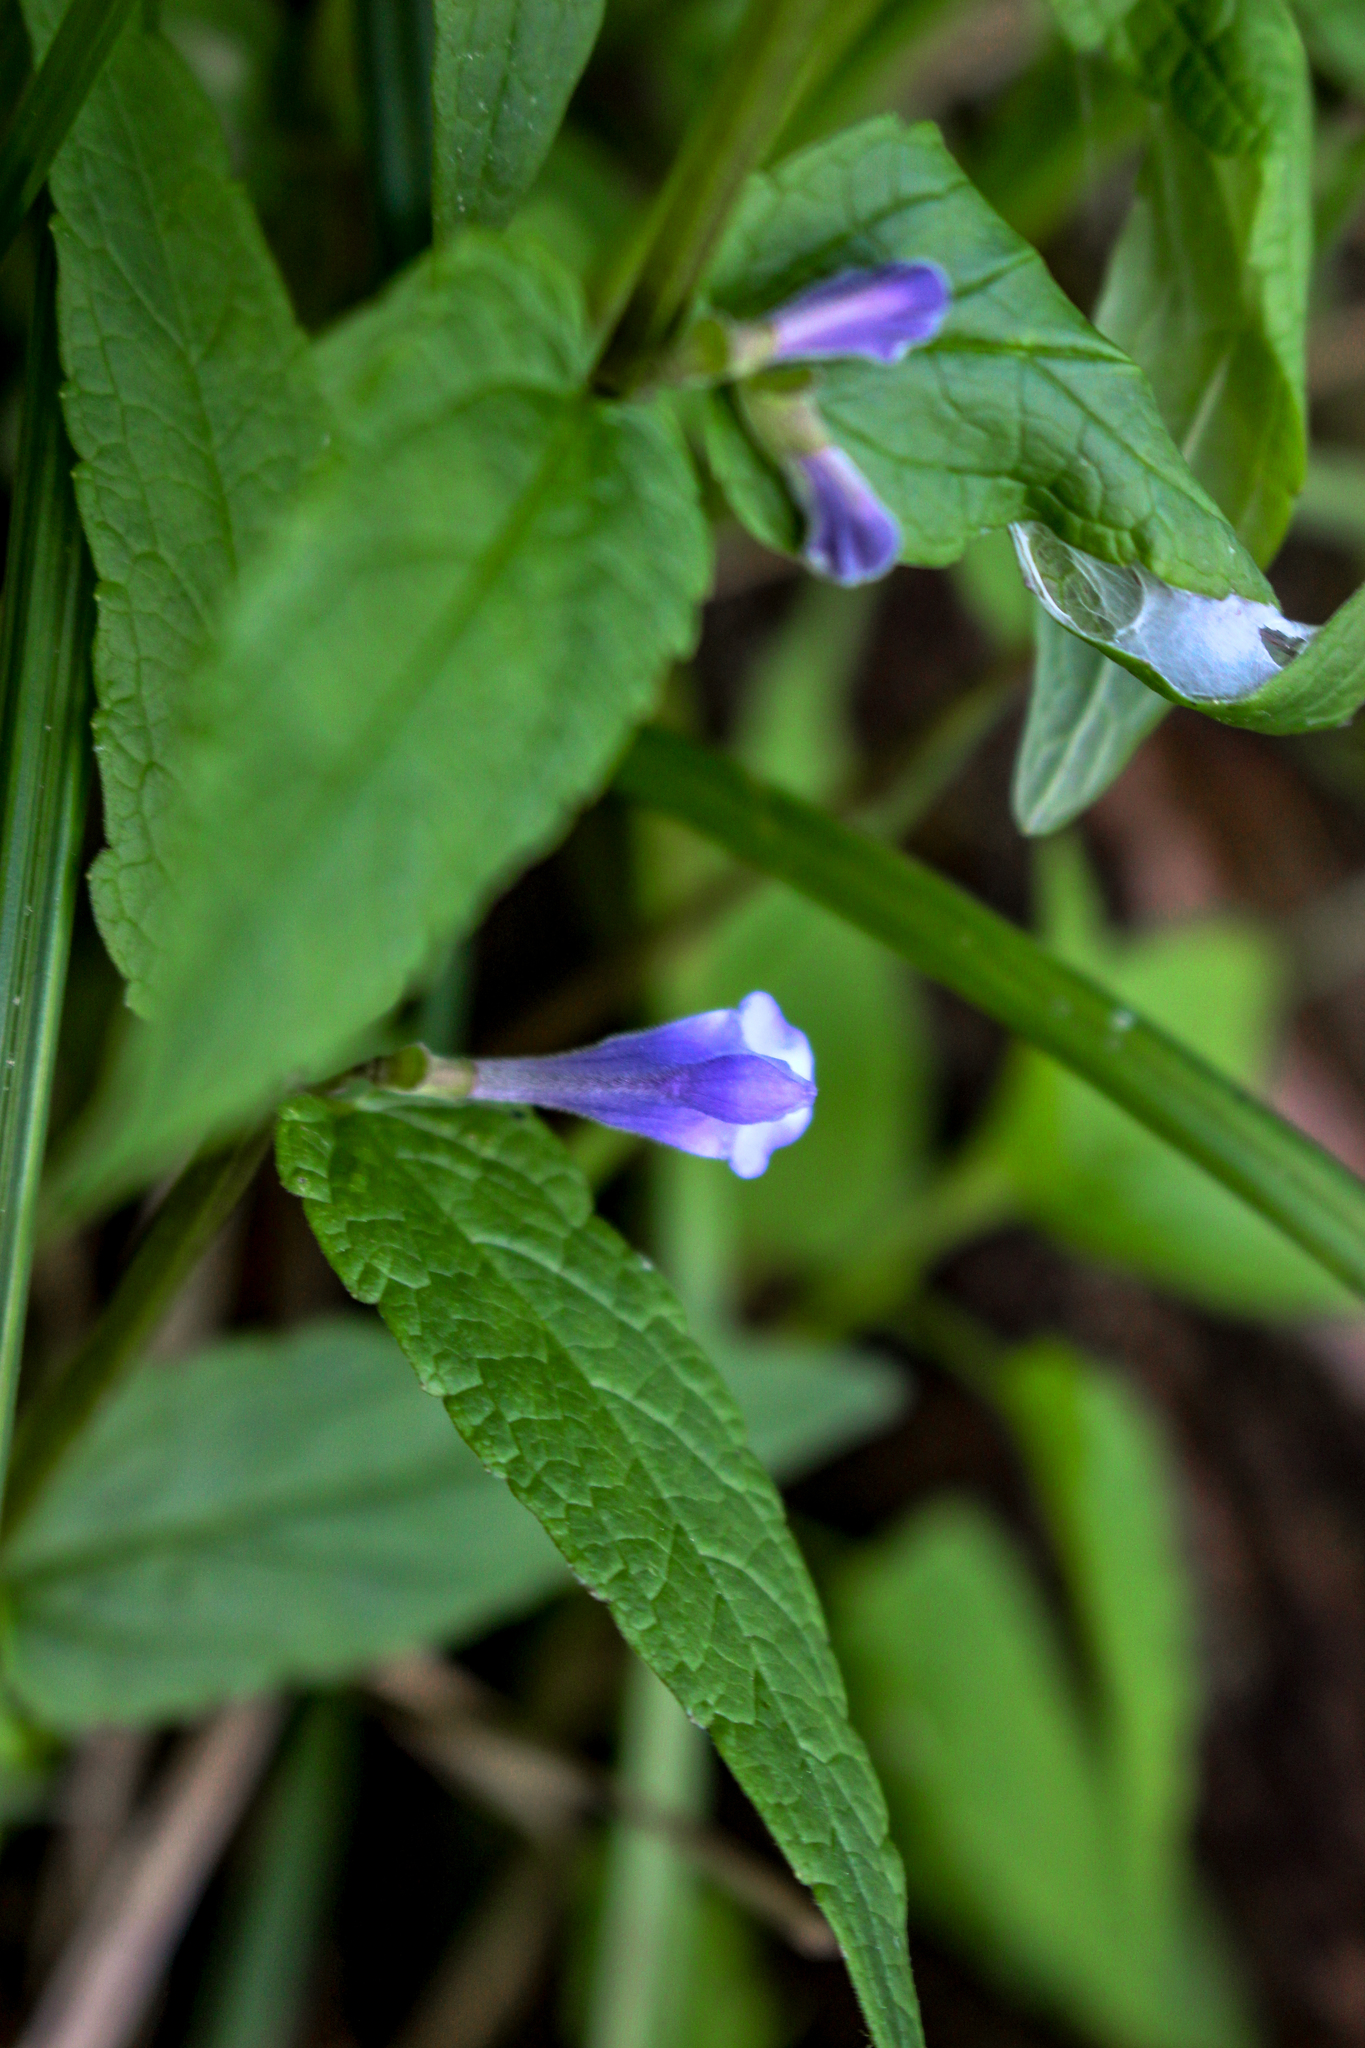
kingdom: Plantae
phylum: Tracheophyta
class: Magnoliopsida
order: Lamiales
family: Lamiaceae
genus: Scutellaria
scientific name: Scutellaria galericulata
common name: Skullcap
